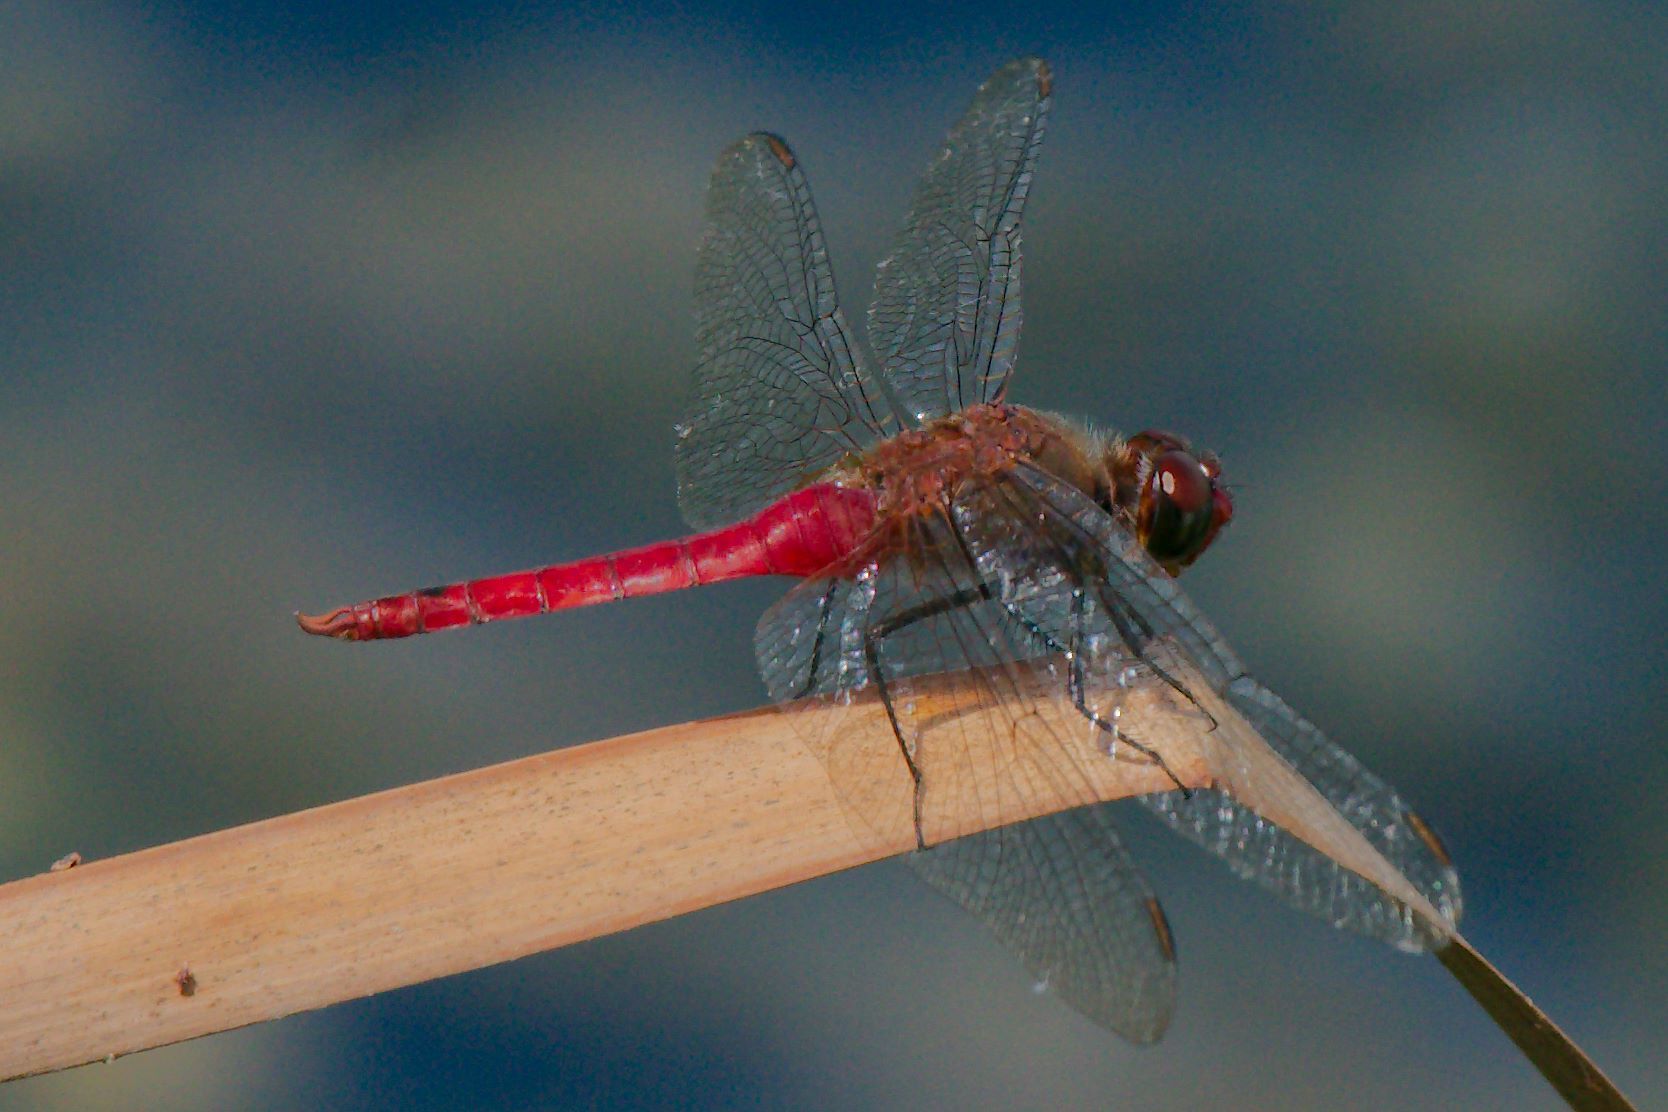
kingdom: Animalia
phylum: Arthropoda
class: Insecta
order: Odonata
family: Libellulidae
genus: Brachymesia
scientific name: Brachymesia furcata
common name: Red-taled pennant
